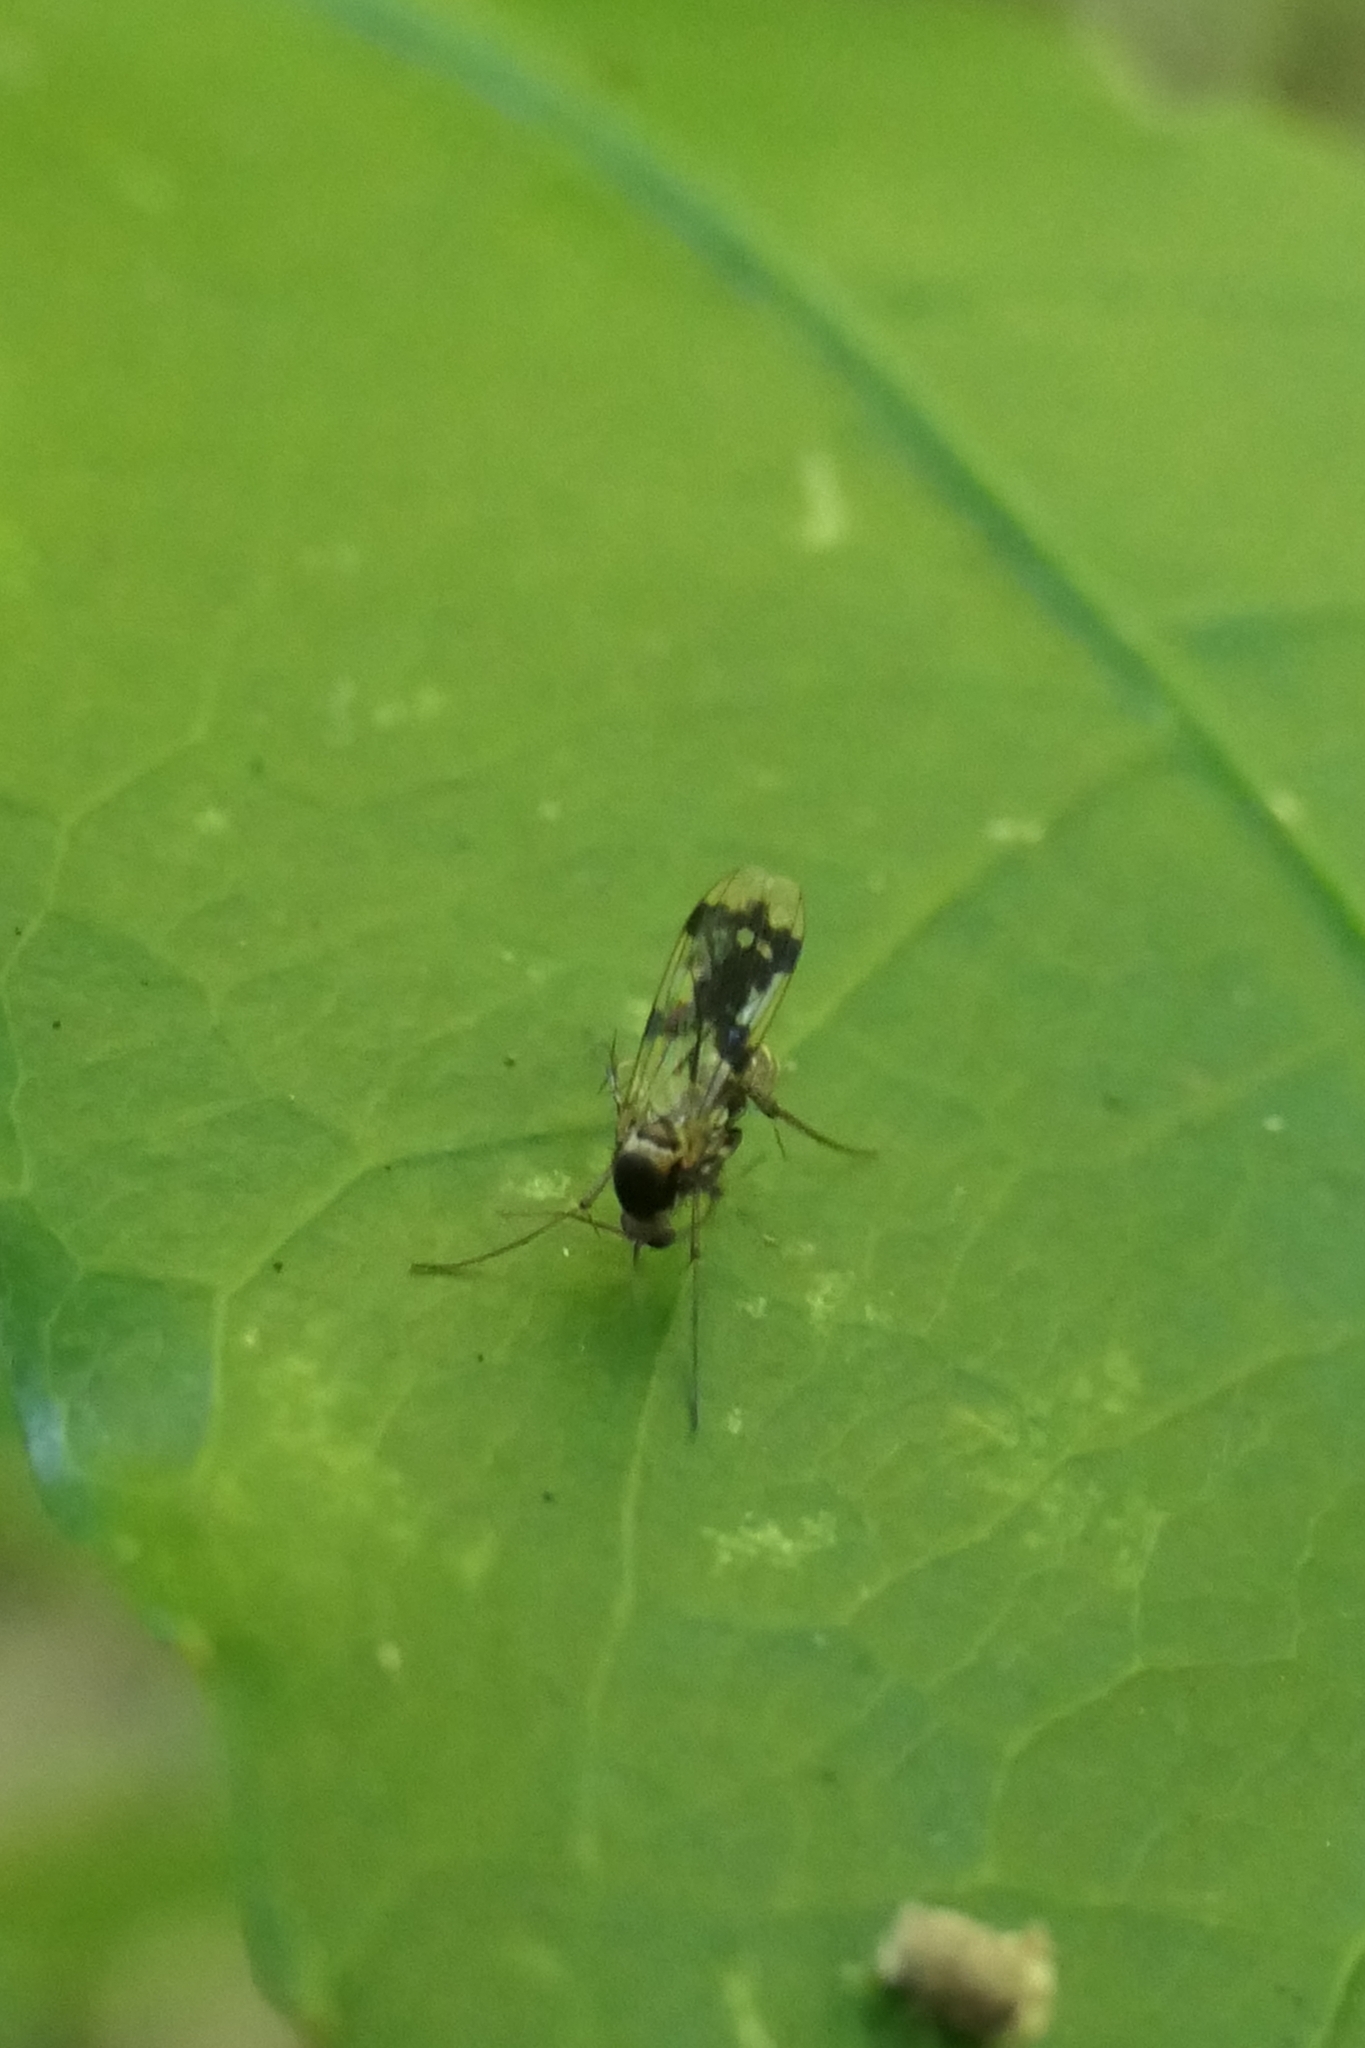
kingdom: Animalia
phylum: Arthropoda
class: Insecta
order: Diptera
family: Mycetophilidae
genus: Mycetophila
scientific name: Mycetophila ornatissima
